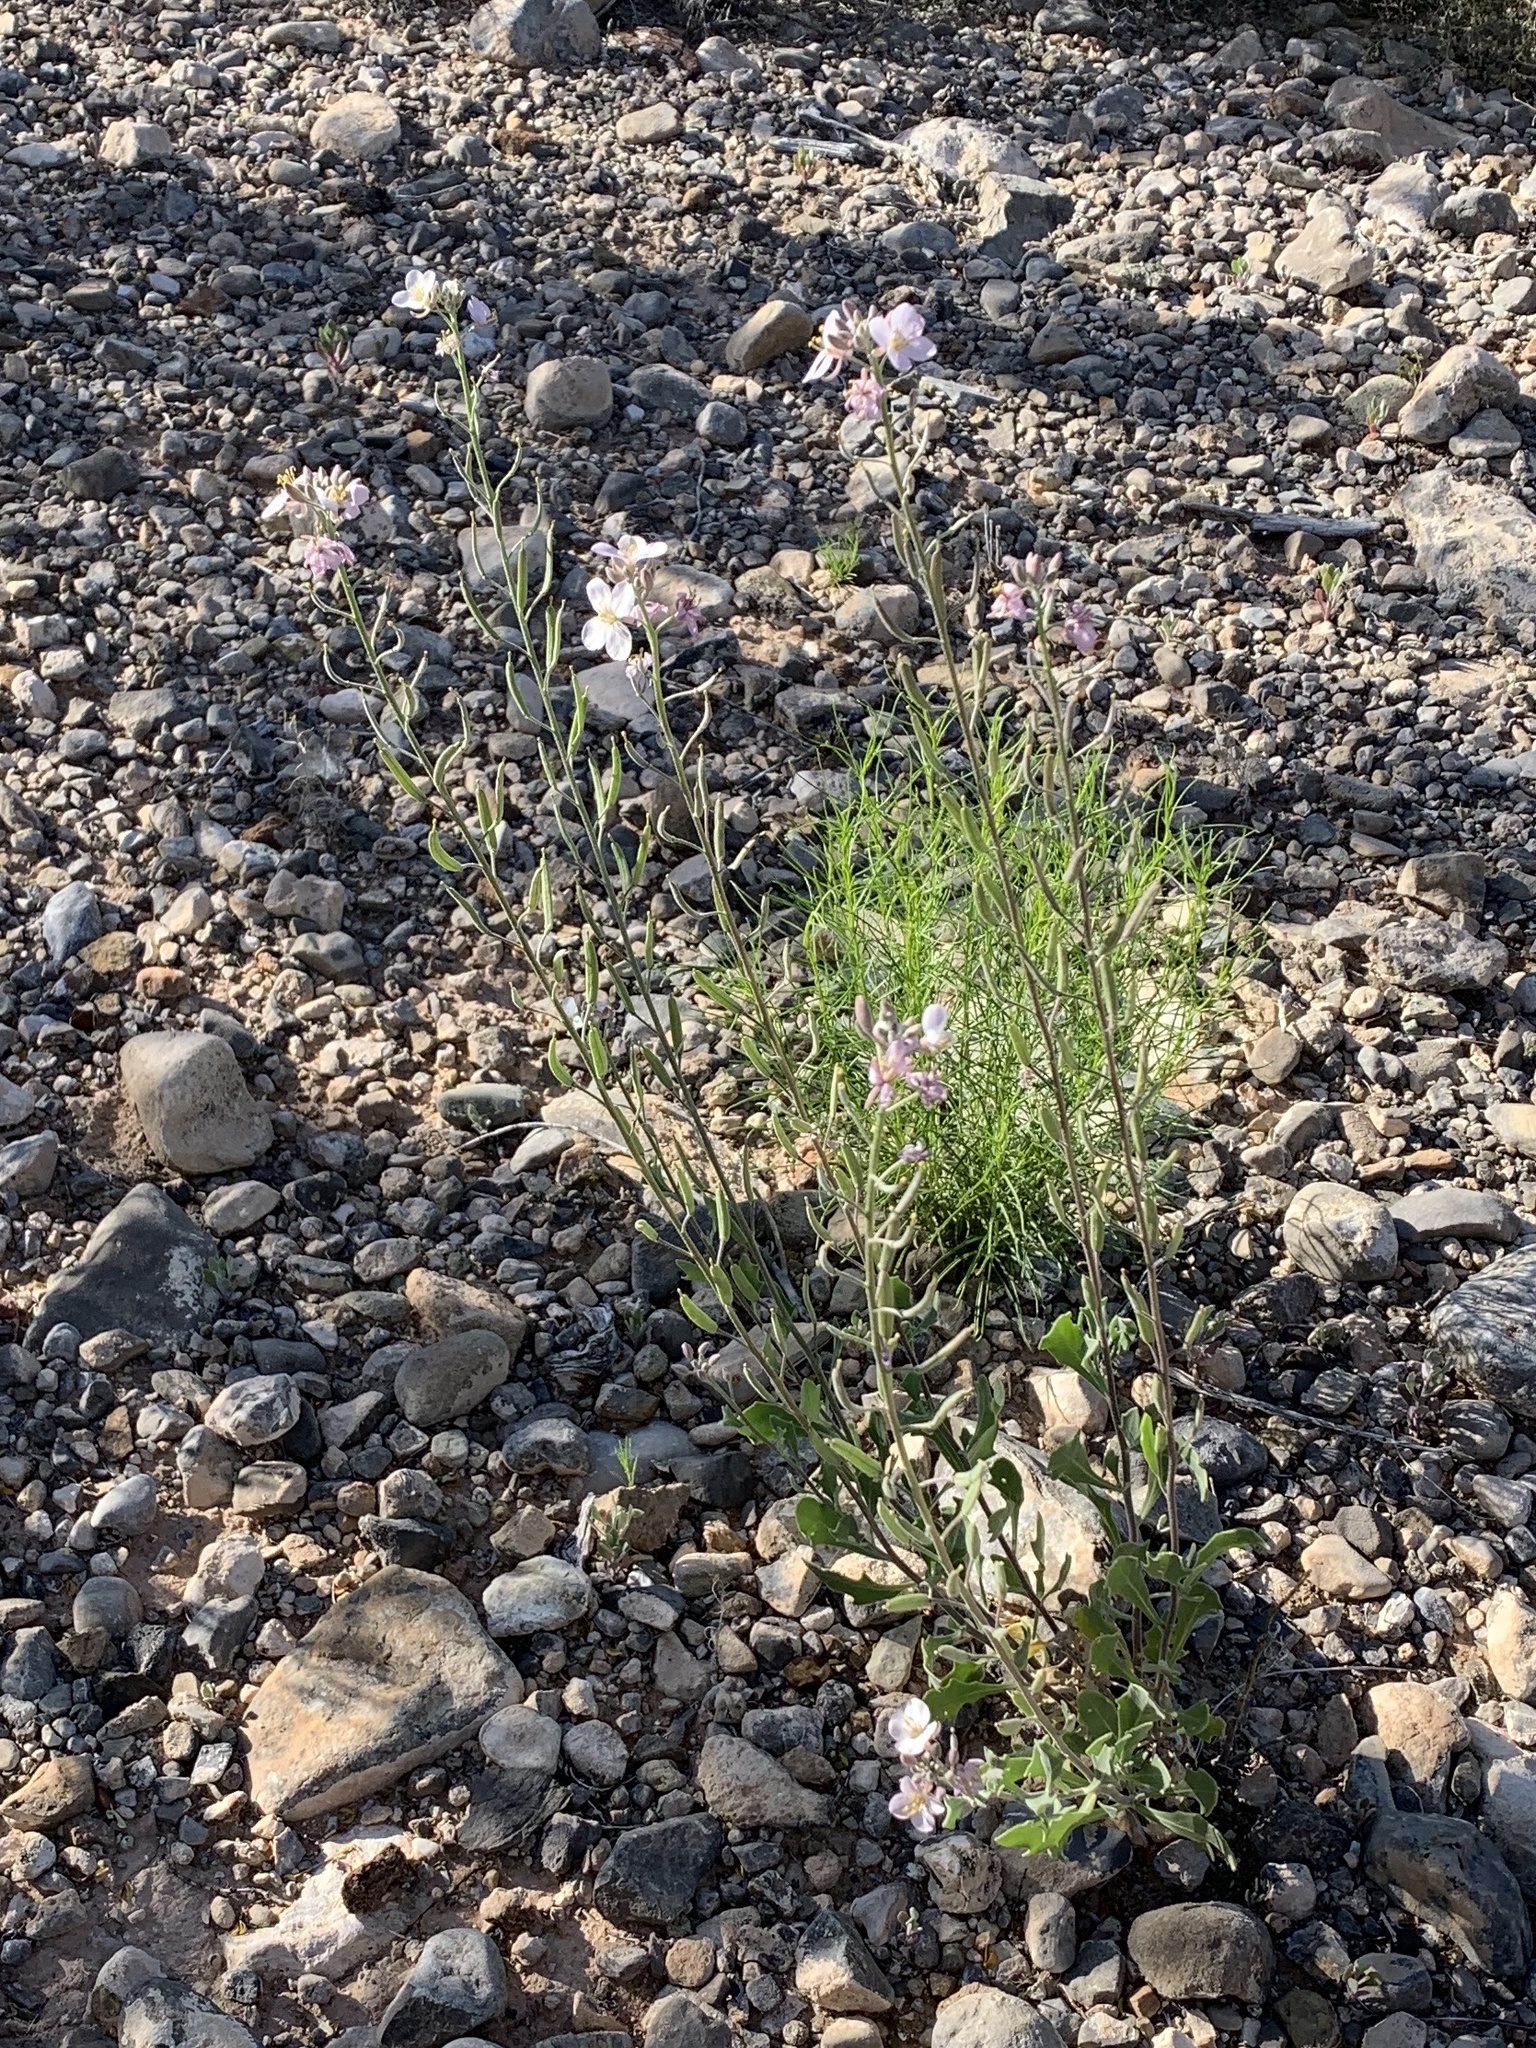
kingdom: Plantae
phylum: Tracheophyta
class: Magnoliopsida
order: Brassicales
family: Brassicaceae
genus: Nerisyrenia
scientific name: Nerisyrenia camporum
